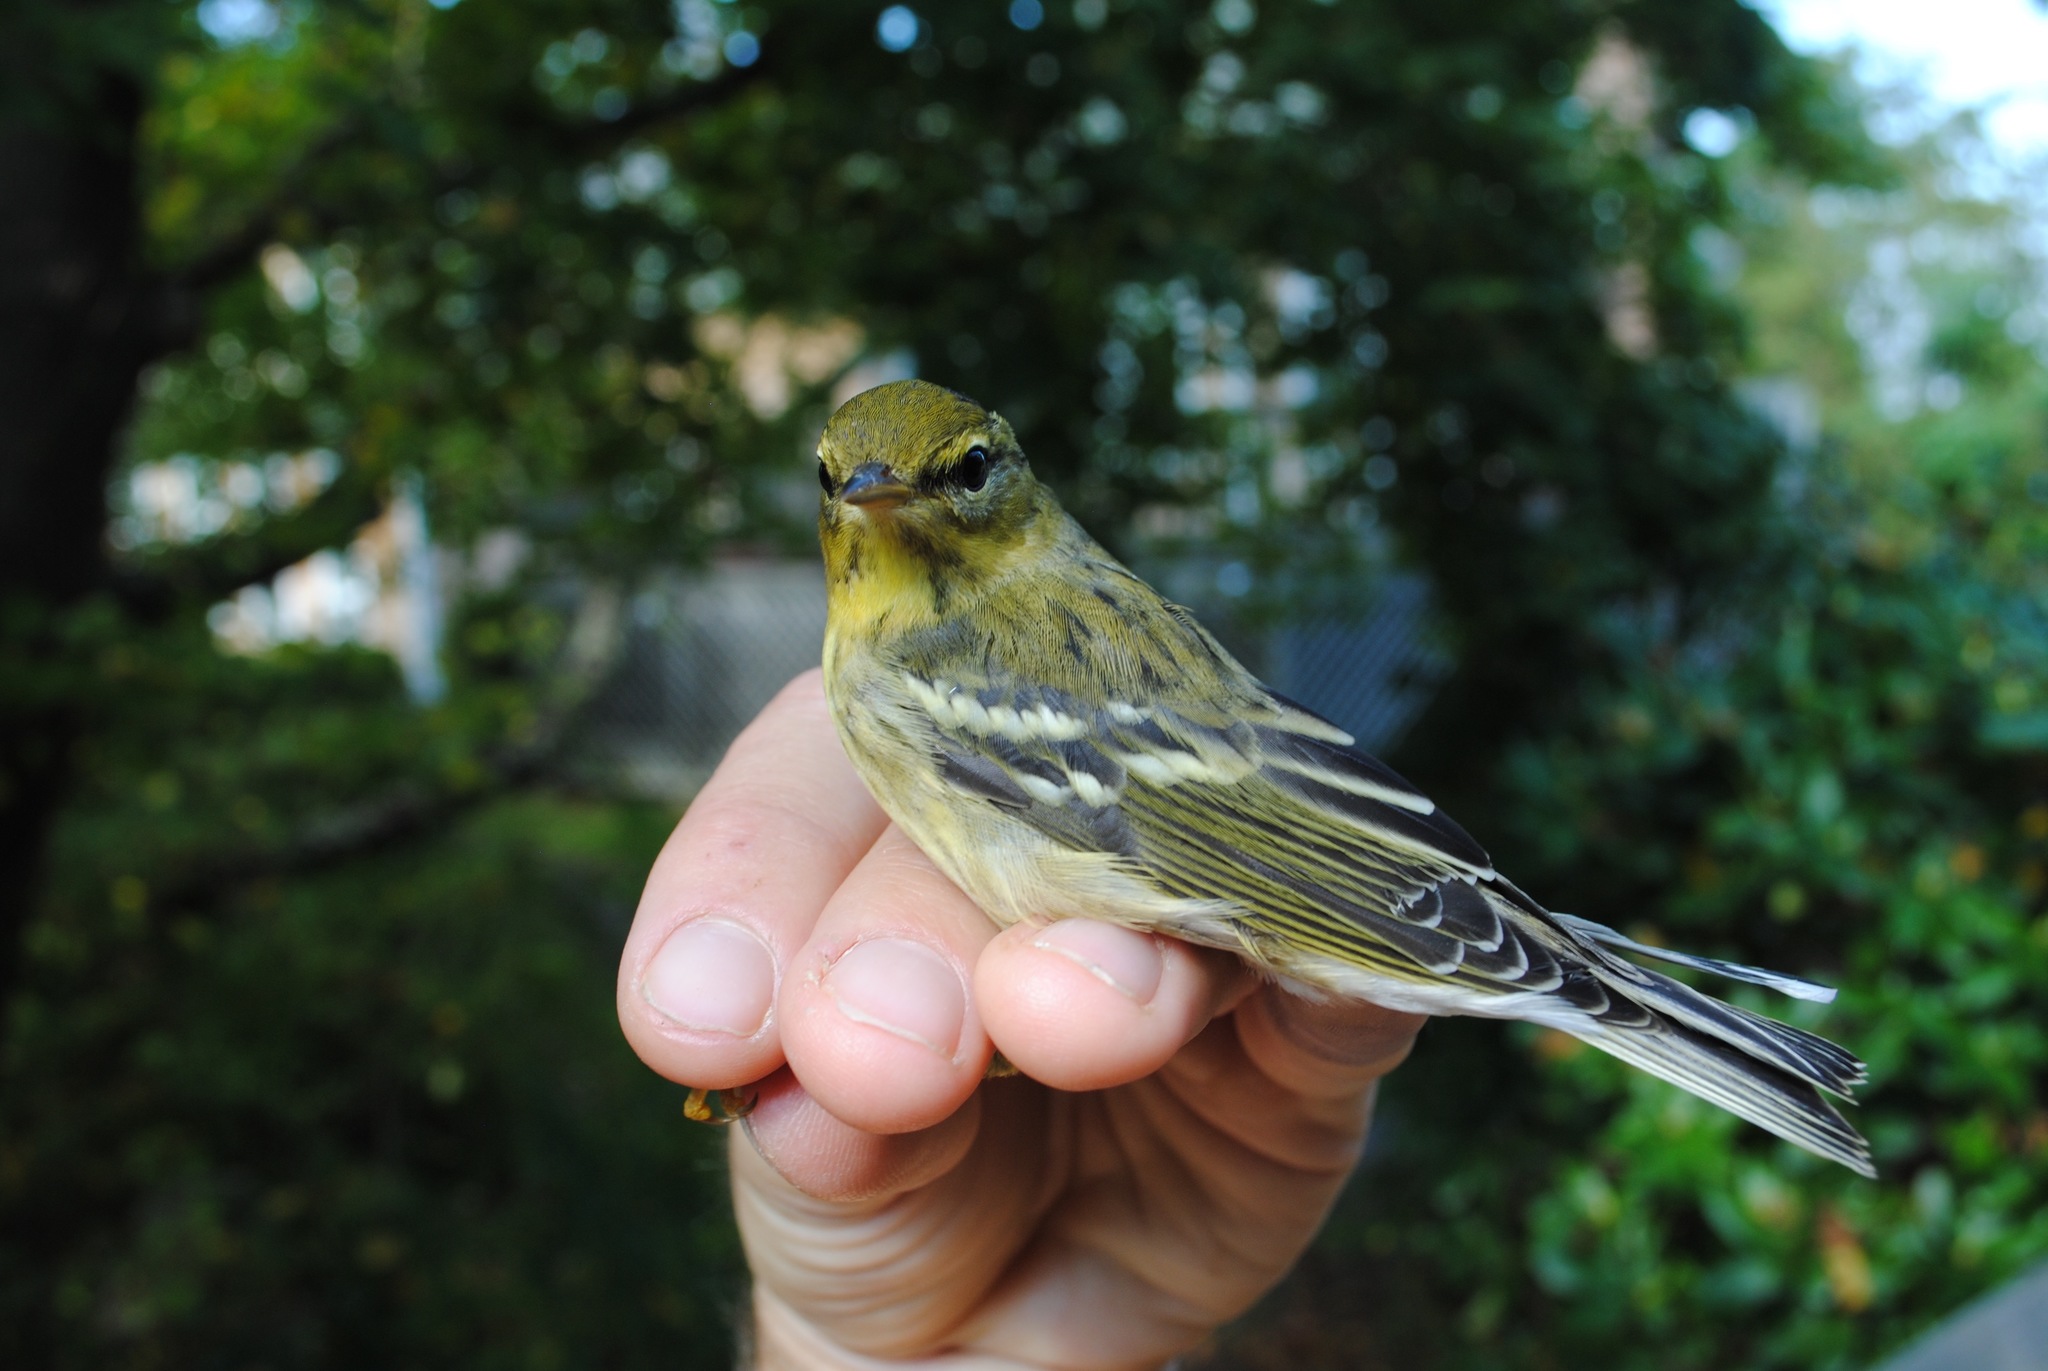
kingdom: Animalia
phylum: Chordata
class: Aves
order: Passeriformes
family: Parulidae
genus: Setophaga
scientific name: Setophaga striata
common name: Blackpoll warbler
